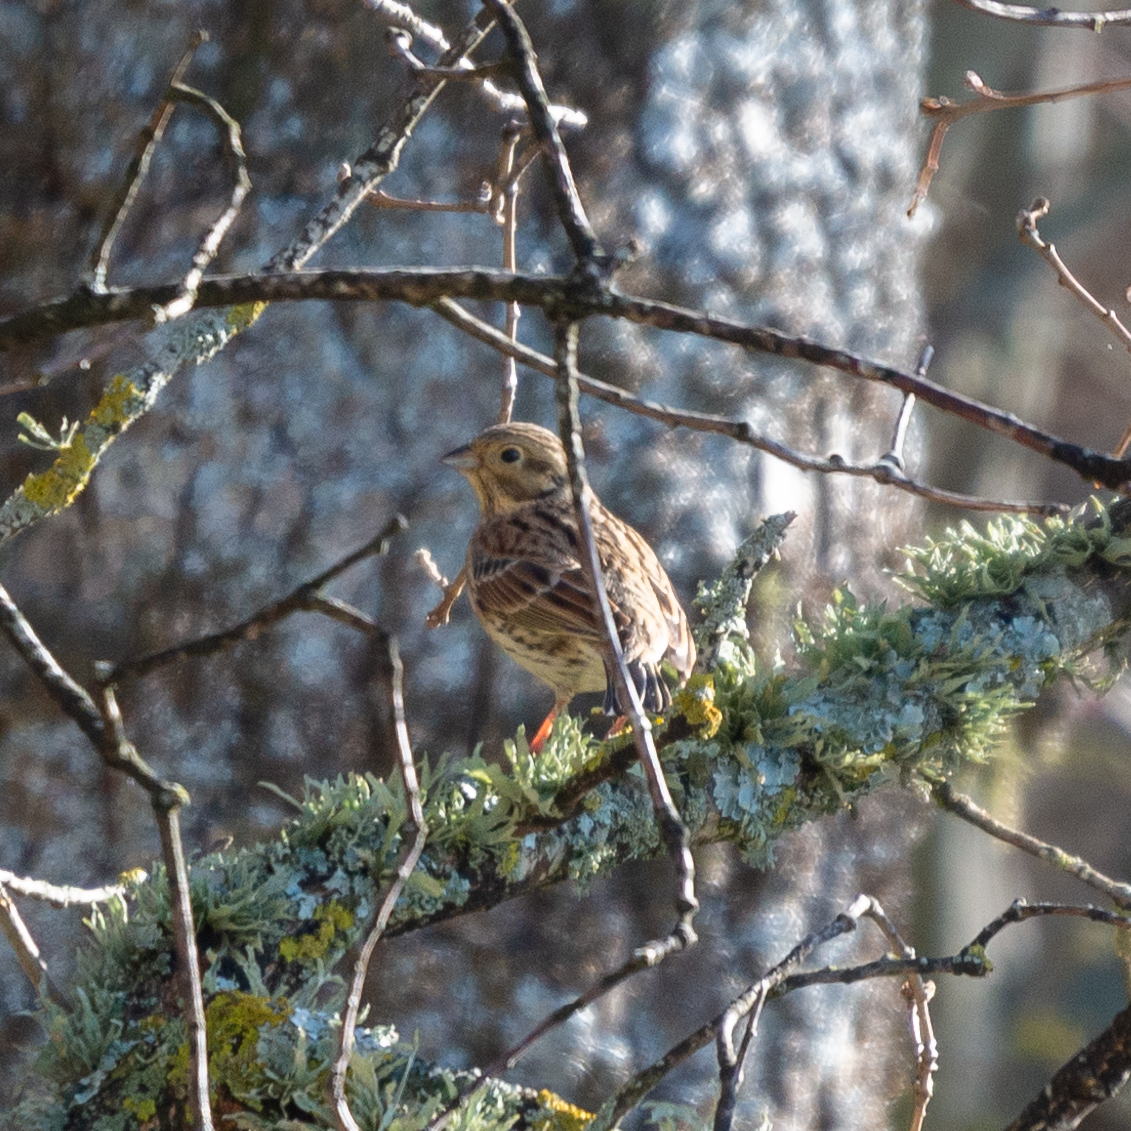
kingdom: Animalia
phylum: Chordata
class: Aves
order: Passeriformes
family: Emberizidae
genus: Emberiza
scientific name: Emberiza cirlus
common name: Cirl bunting
